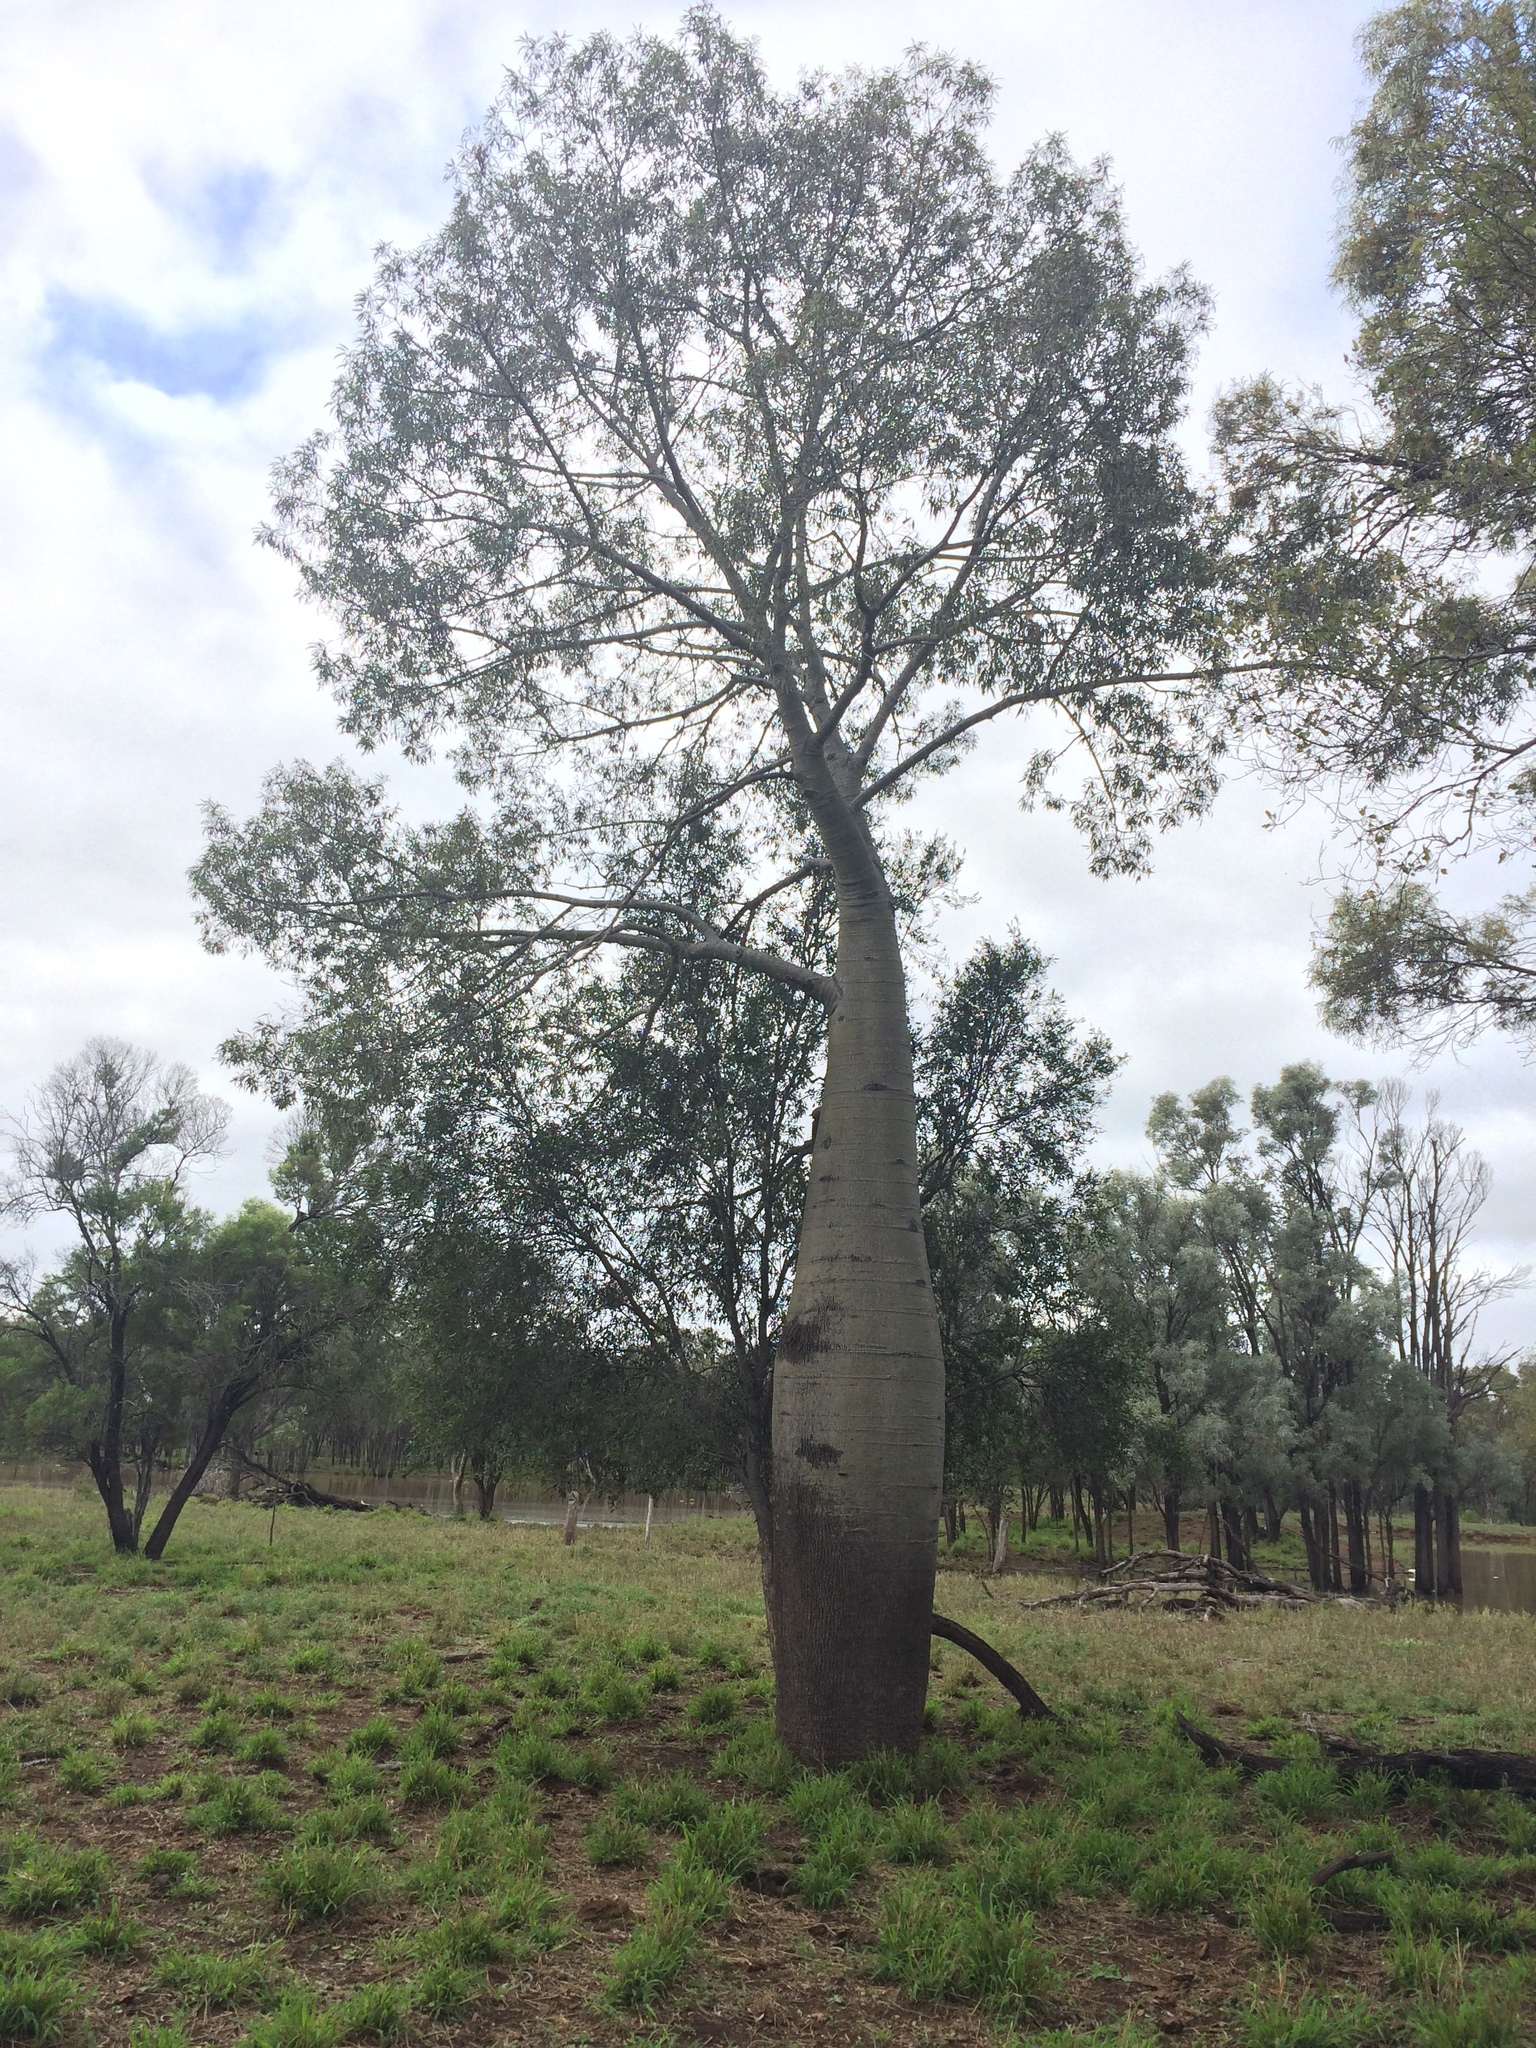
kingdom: Plantae
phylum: Tracheophyta
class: Magnoliopsida
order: Malvales
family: Malvaceae
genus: Brachychiton
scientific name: Brachychiton rupestris
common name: Queensland bottletree
